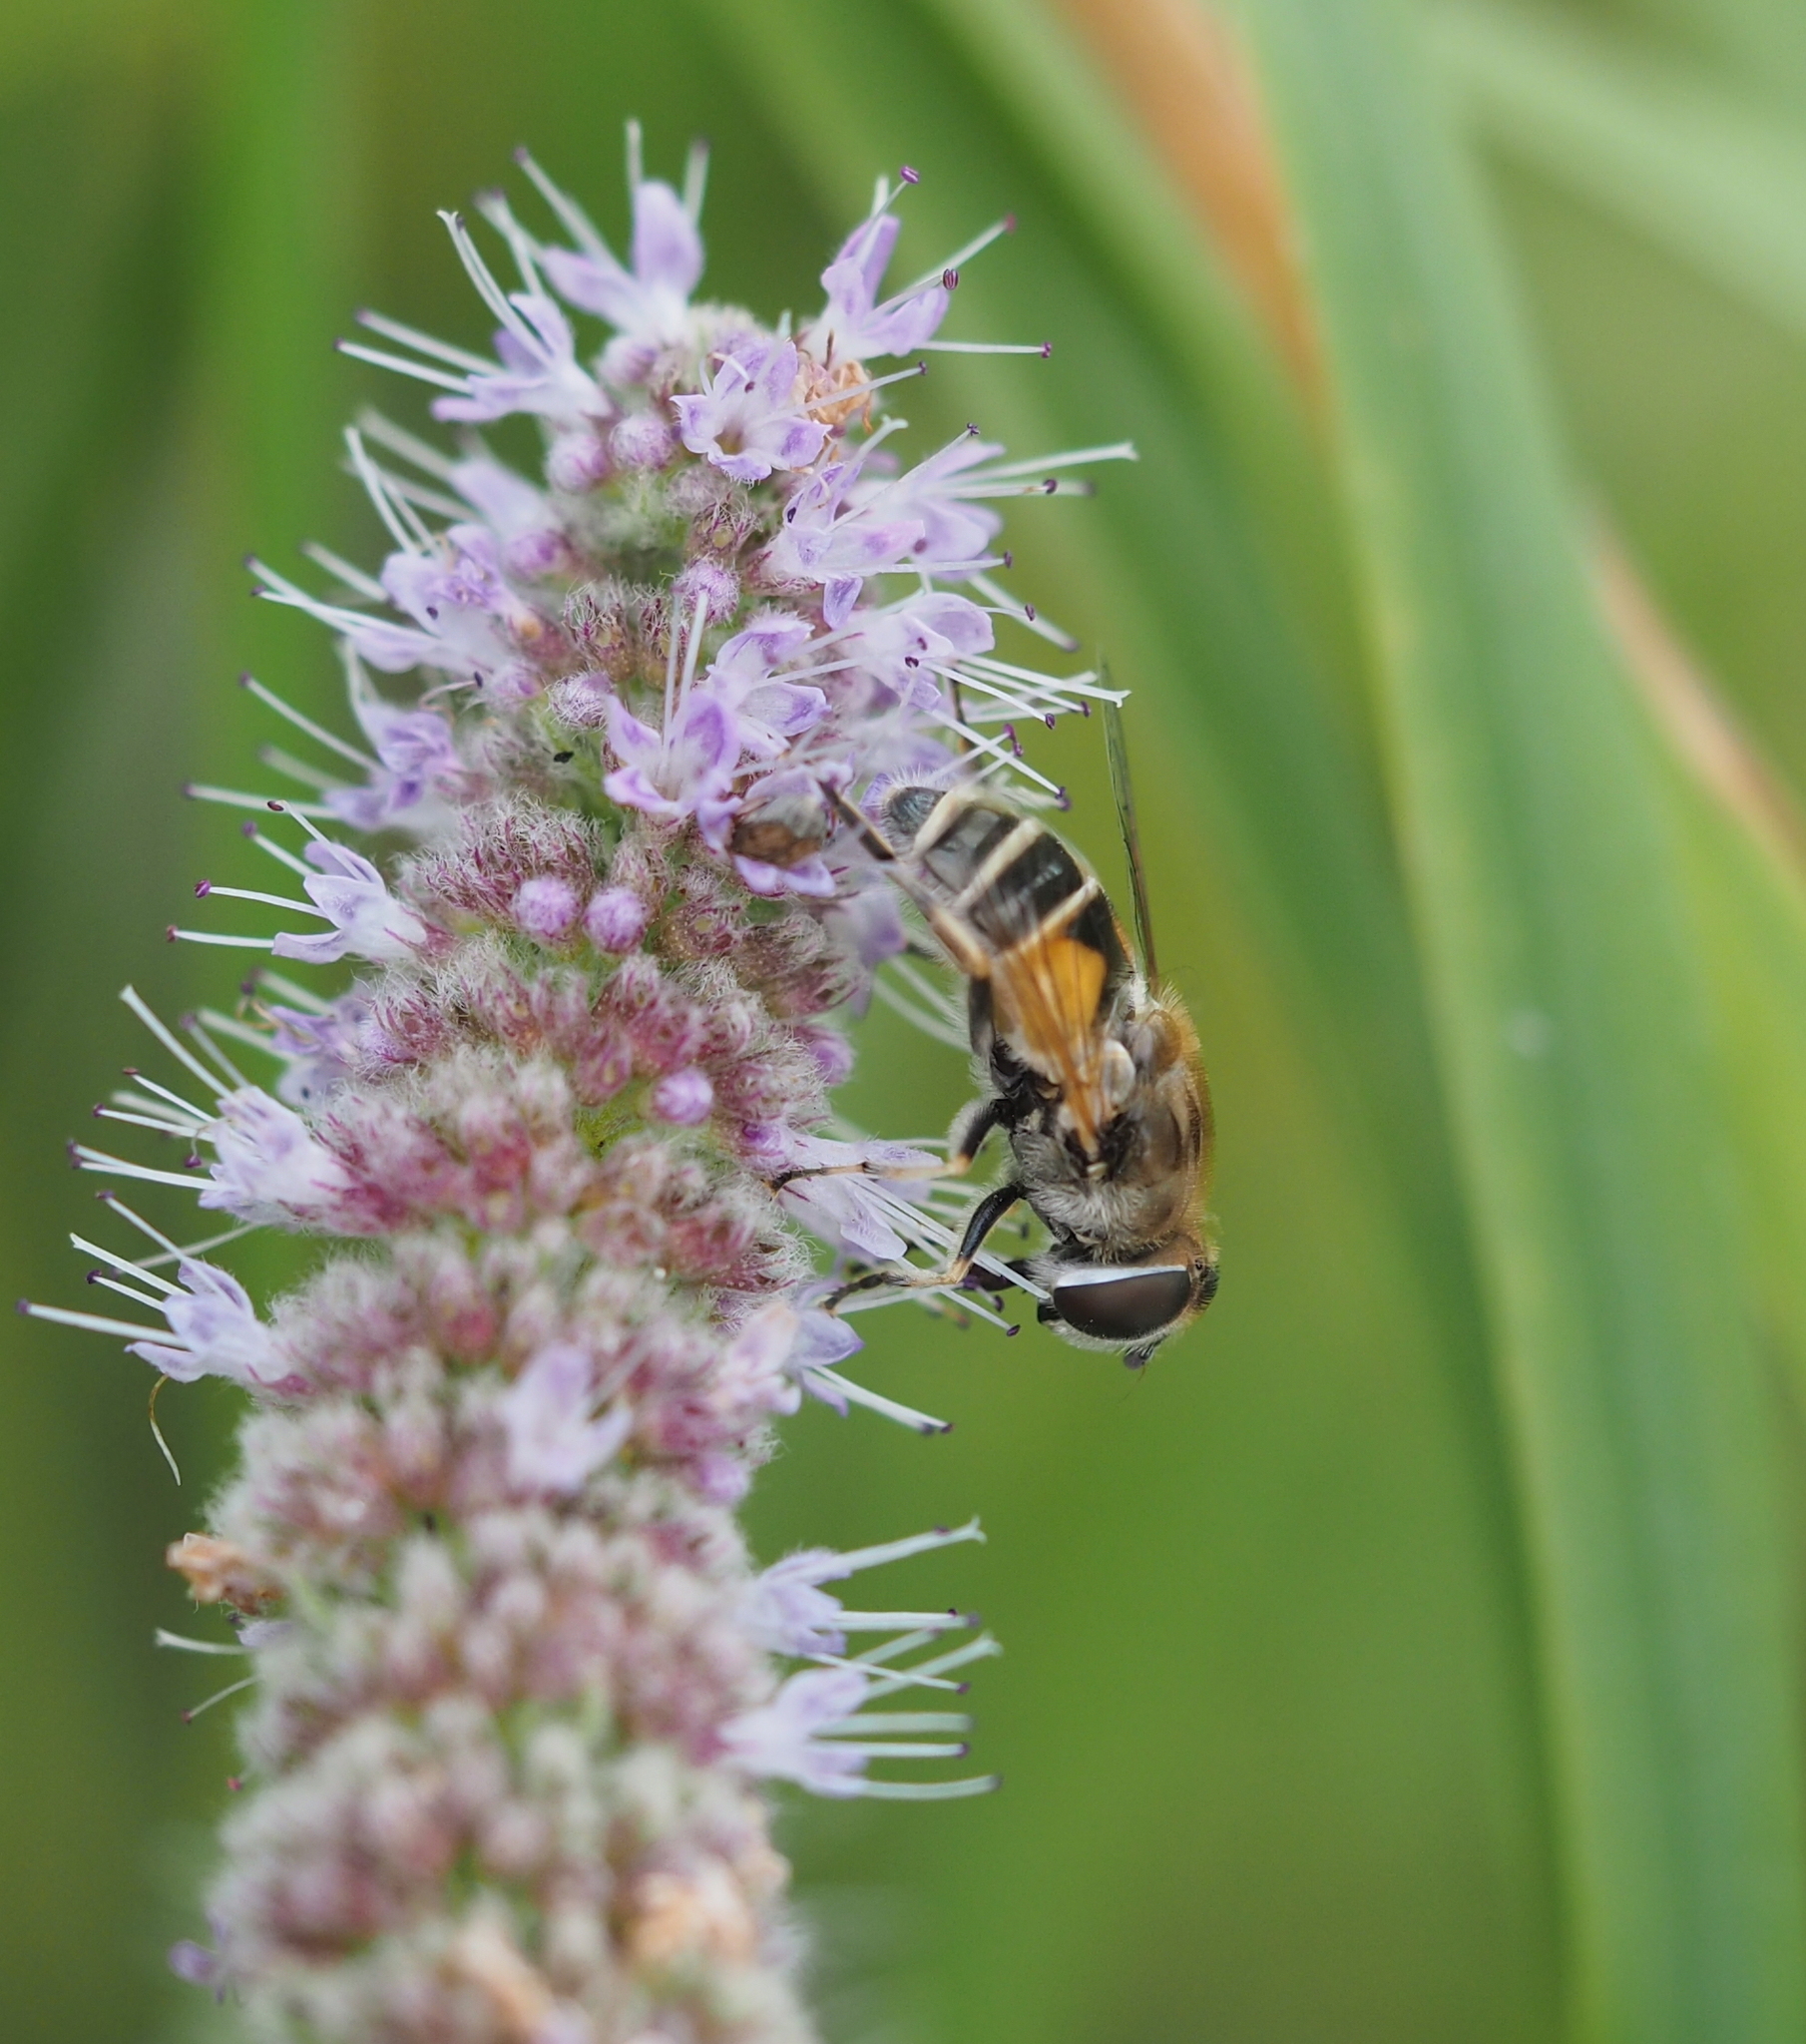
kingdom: Animalia
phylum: Arthropoda
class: Insecta
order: Diptera
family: Syrphidae
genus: Eristalis
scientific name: Eristalis arbustorum
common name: Hover fly
